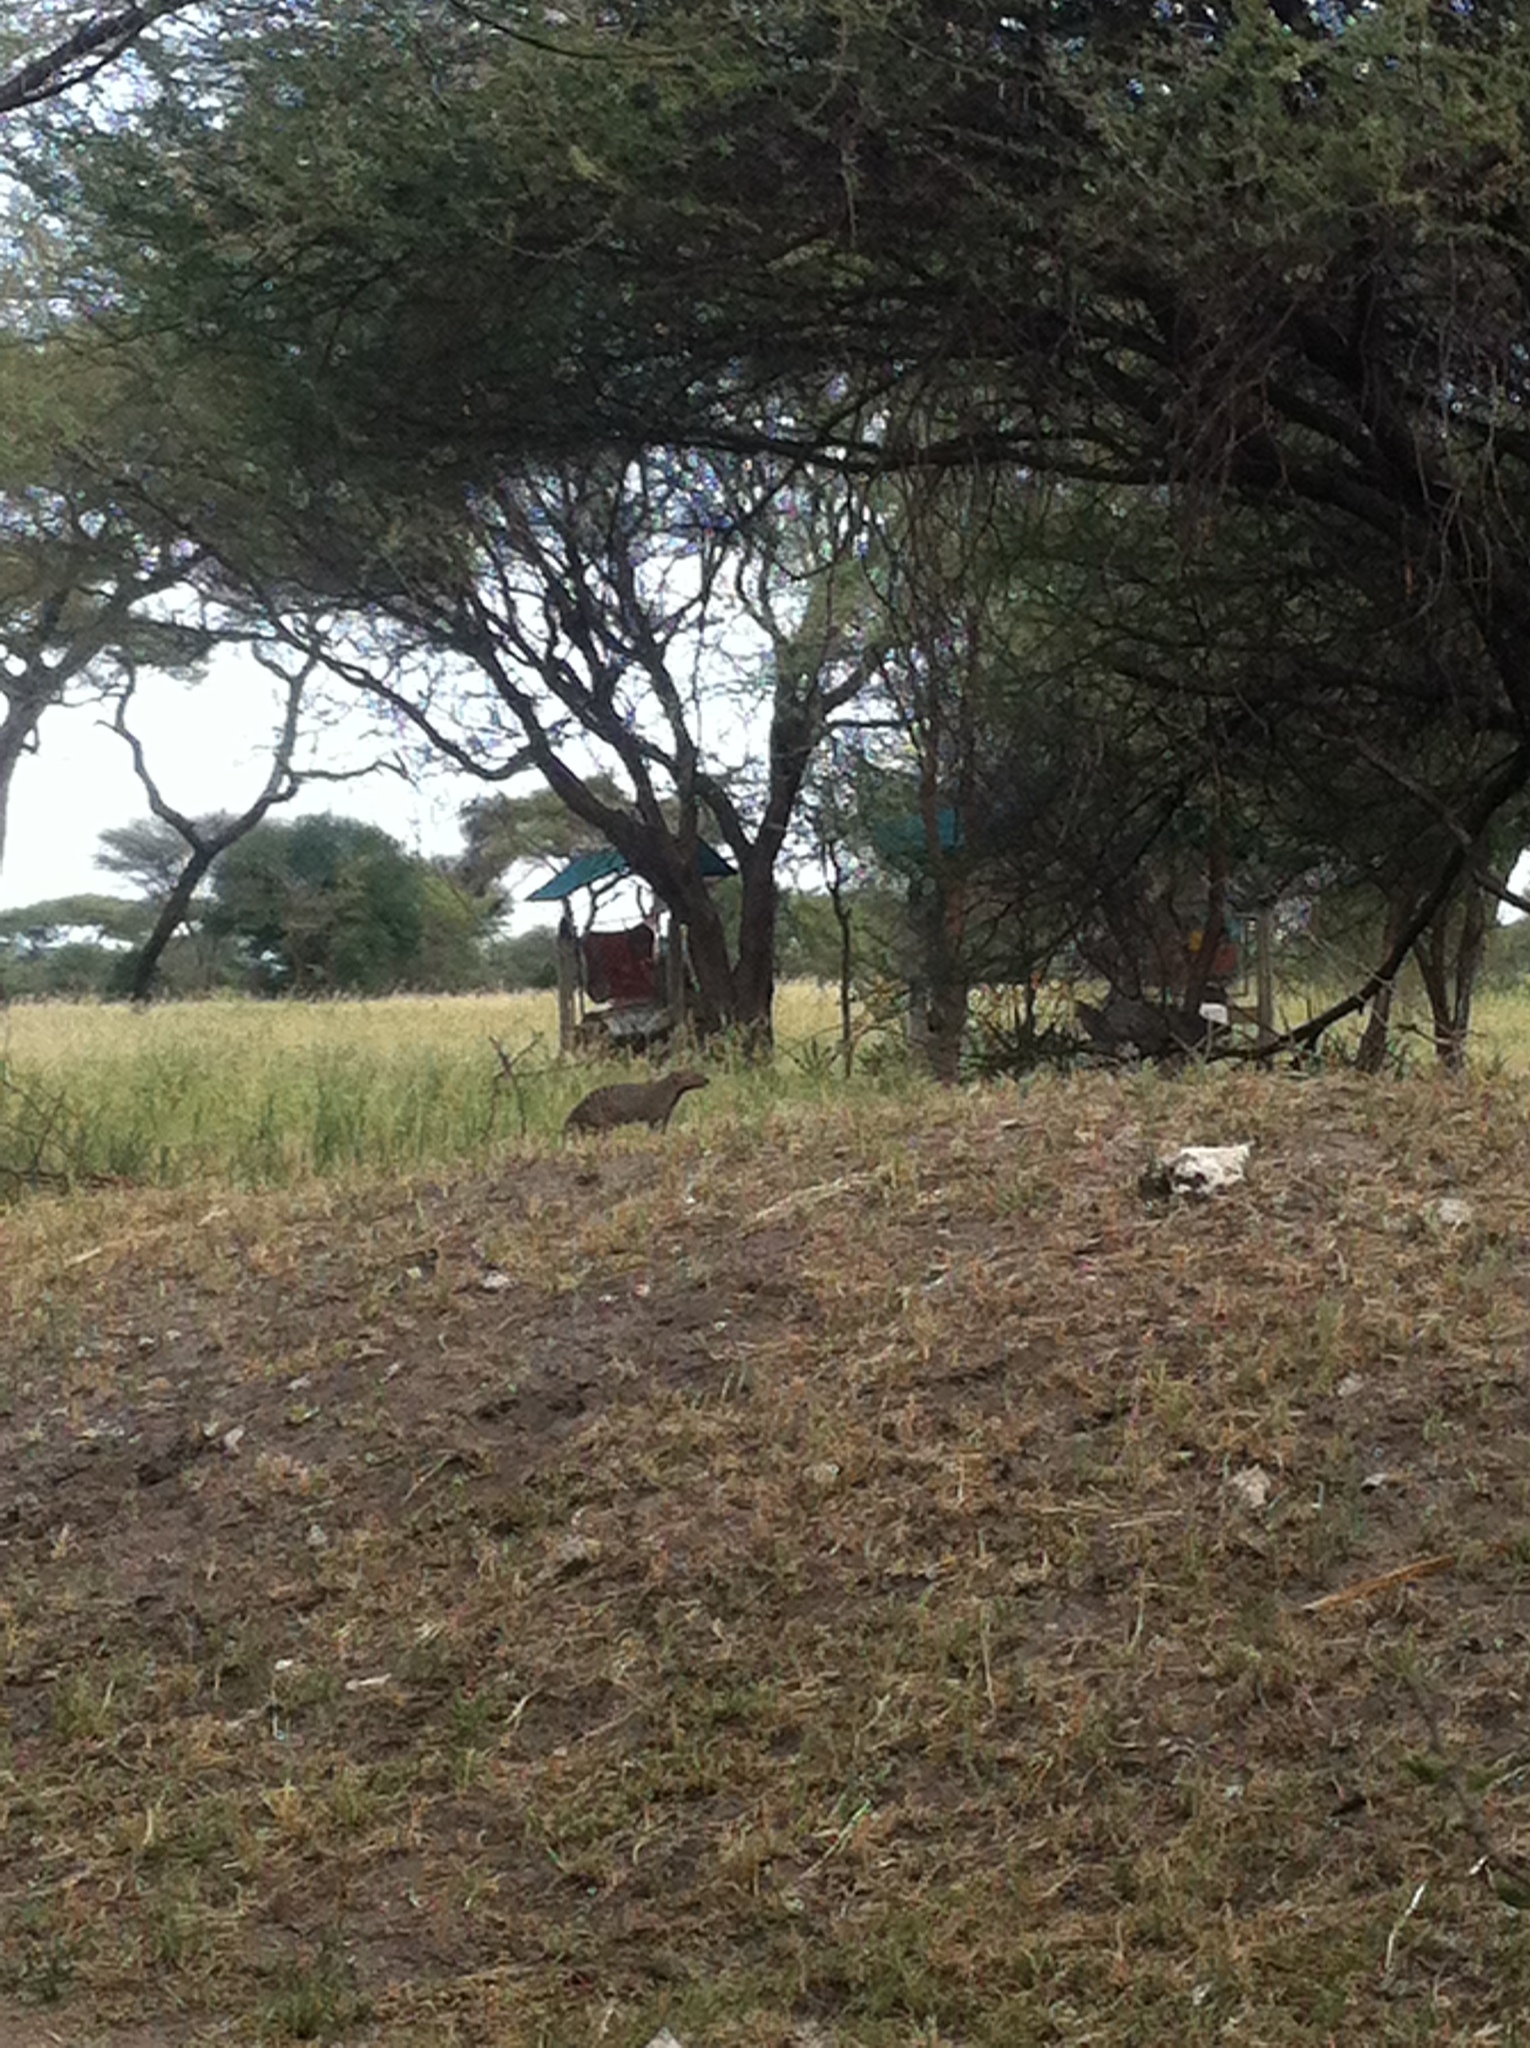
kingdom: Animalia
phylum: Chordata
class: Mammalia
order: Carnivora
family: Herpestidae
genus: Mungos
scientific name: Mungos mungo
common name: Banded mongoose
